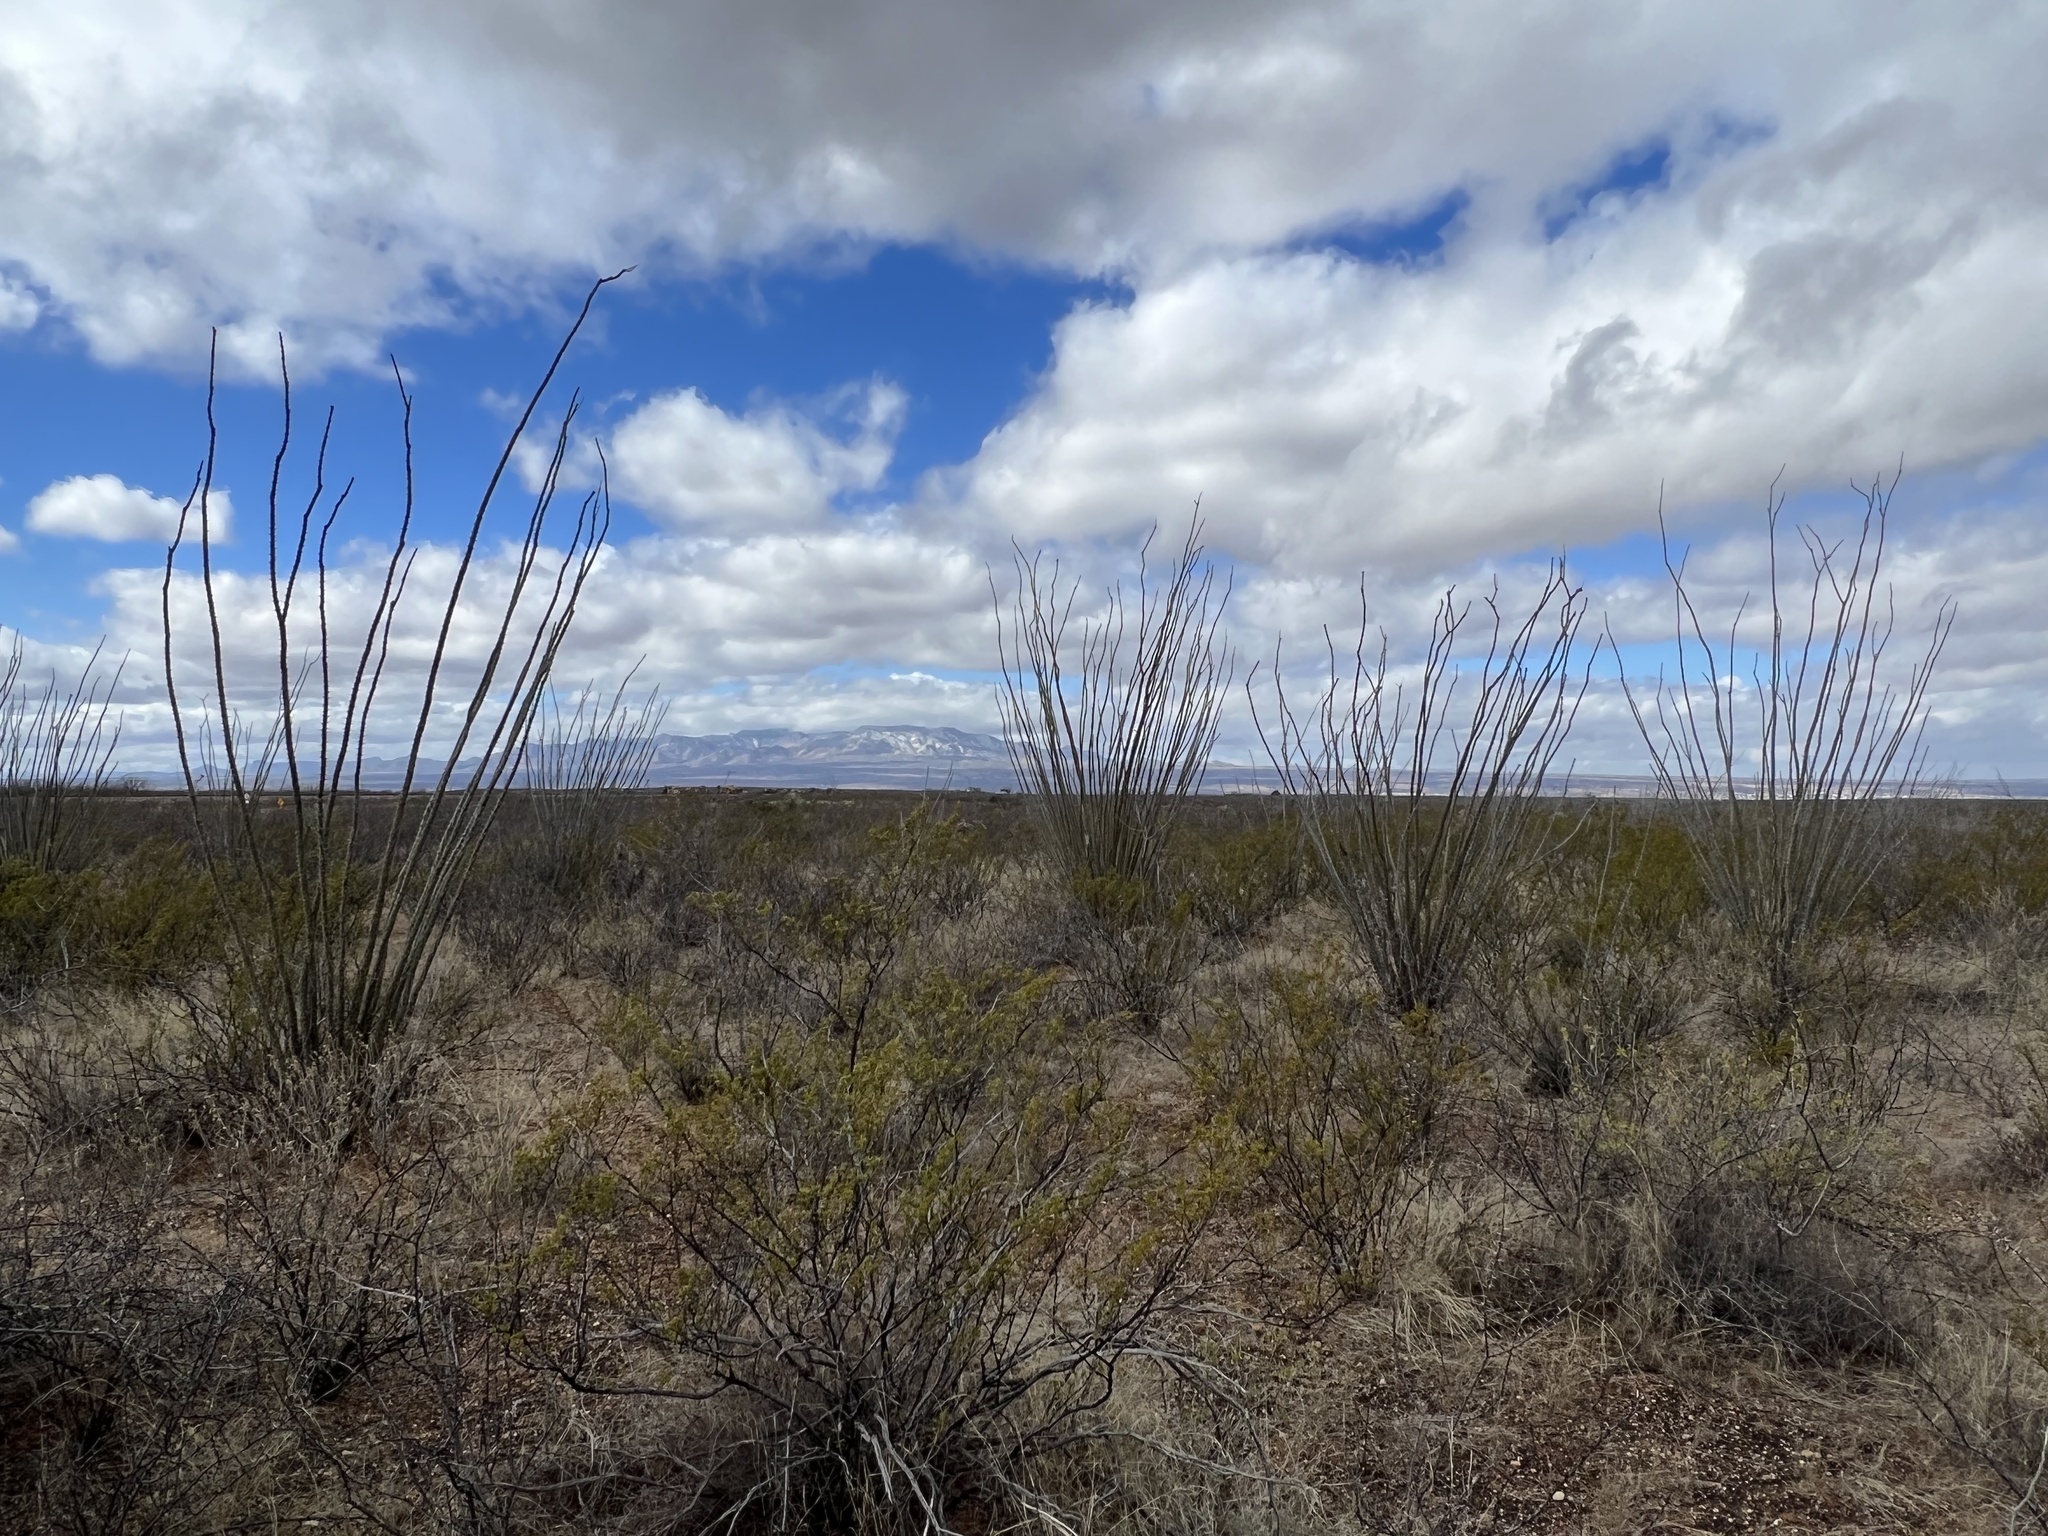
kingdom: Plantae
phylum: Tracheophyta
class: Magnoliopsida
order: Ericales
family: Fouquieriaceae
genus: Fouquieria
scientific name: Fouquieria splendens
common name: Vine-cactus
